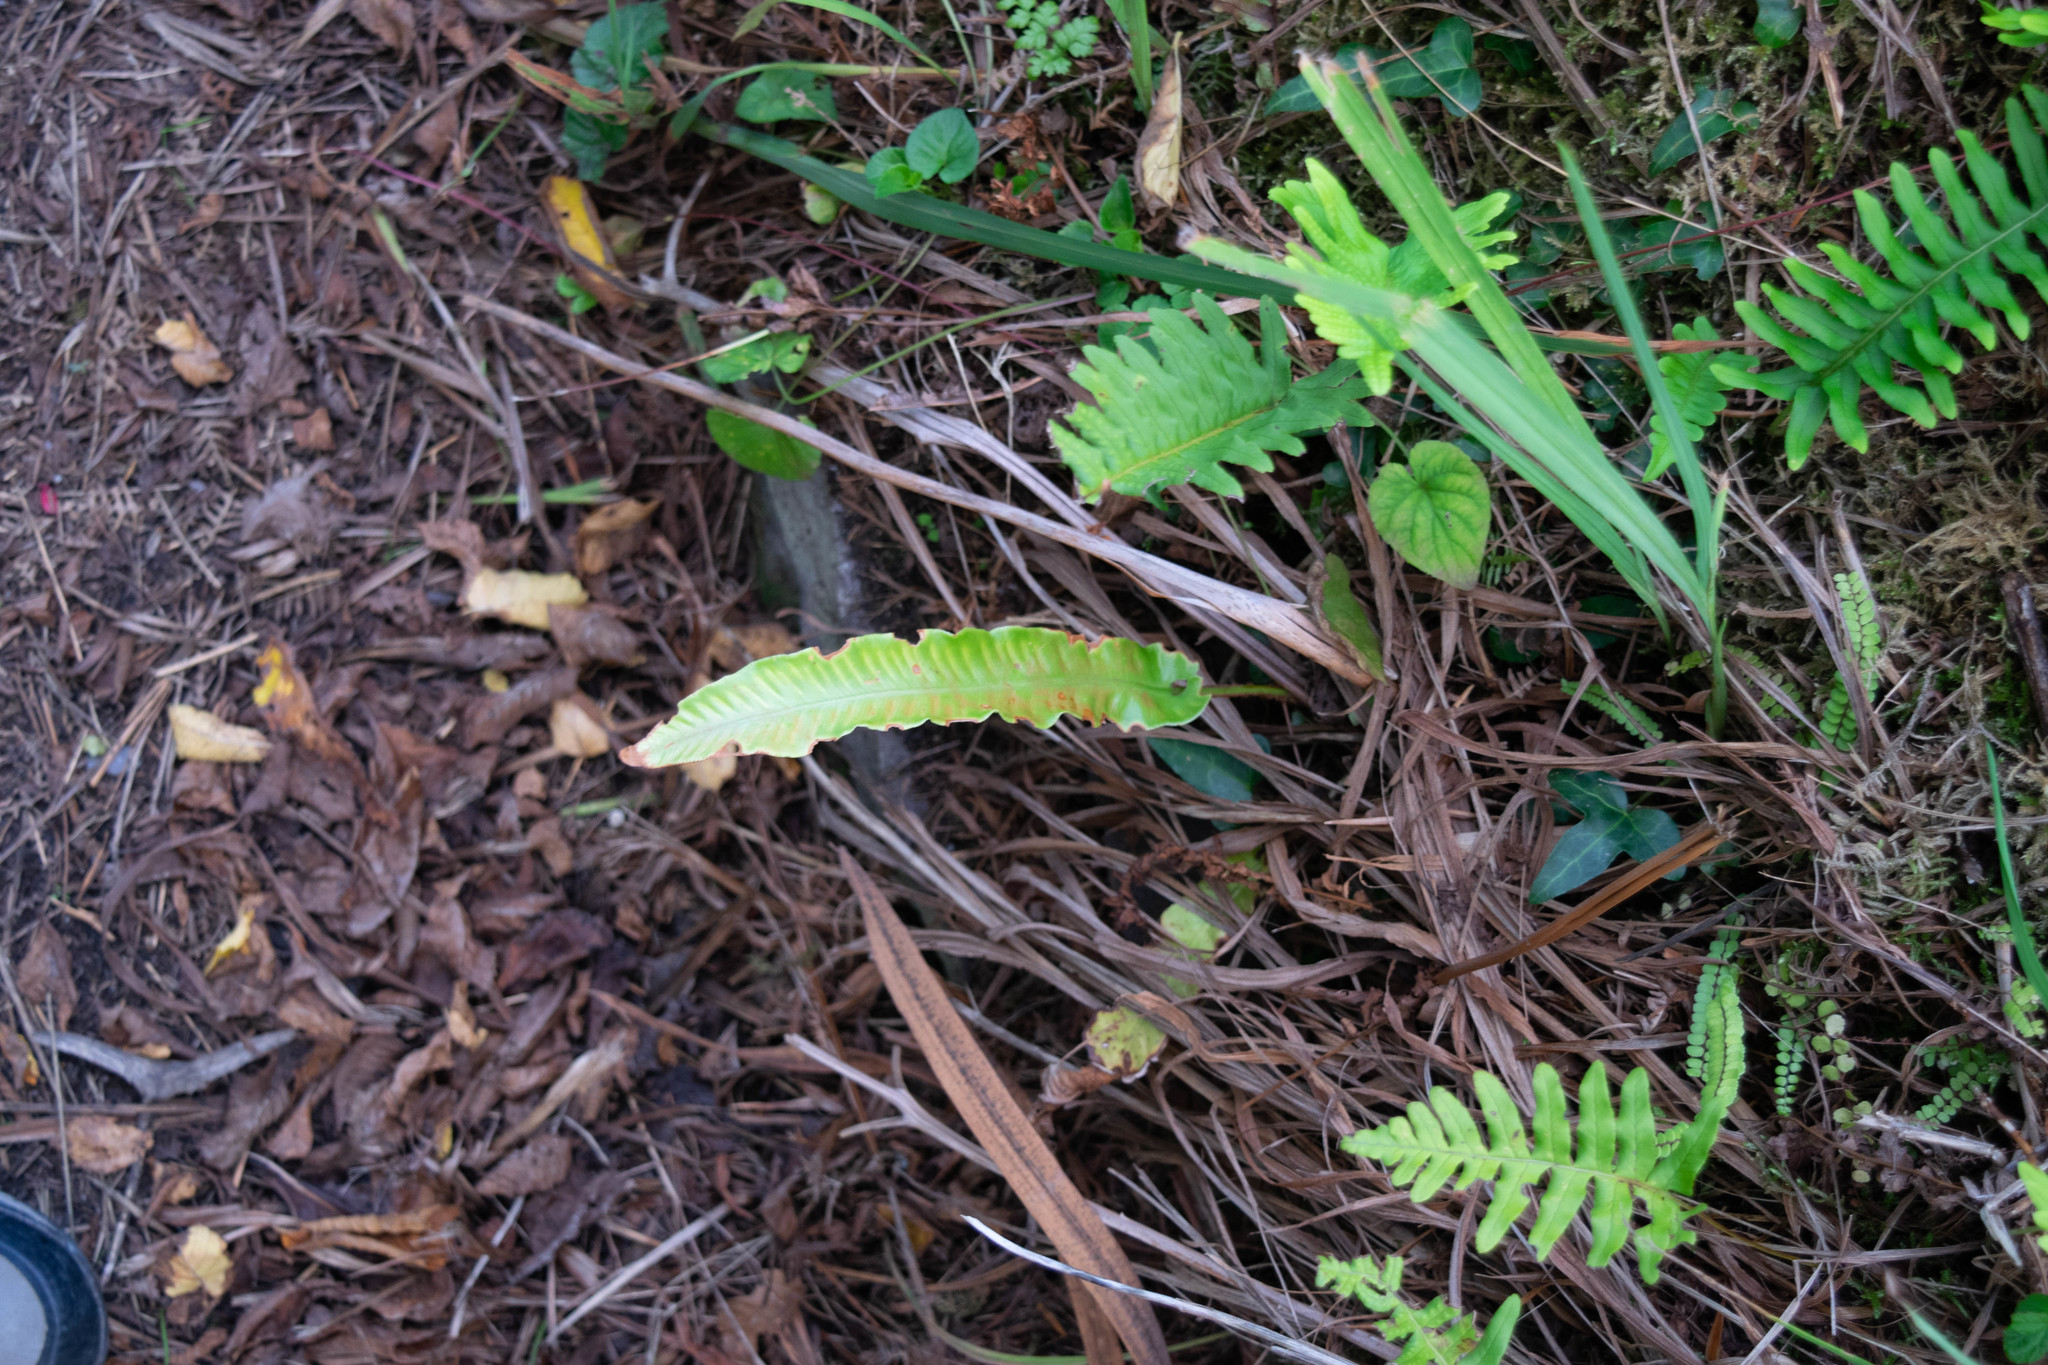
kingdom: Plantae
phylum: Tracheophyta
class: Polypodiopsida
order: Polypodiales
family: Aspleniaceae
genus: Asplenium
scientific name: Asplenium scolopendrium
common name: Hart's-tongue fern
